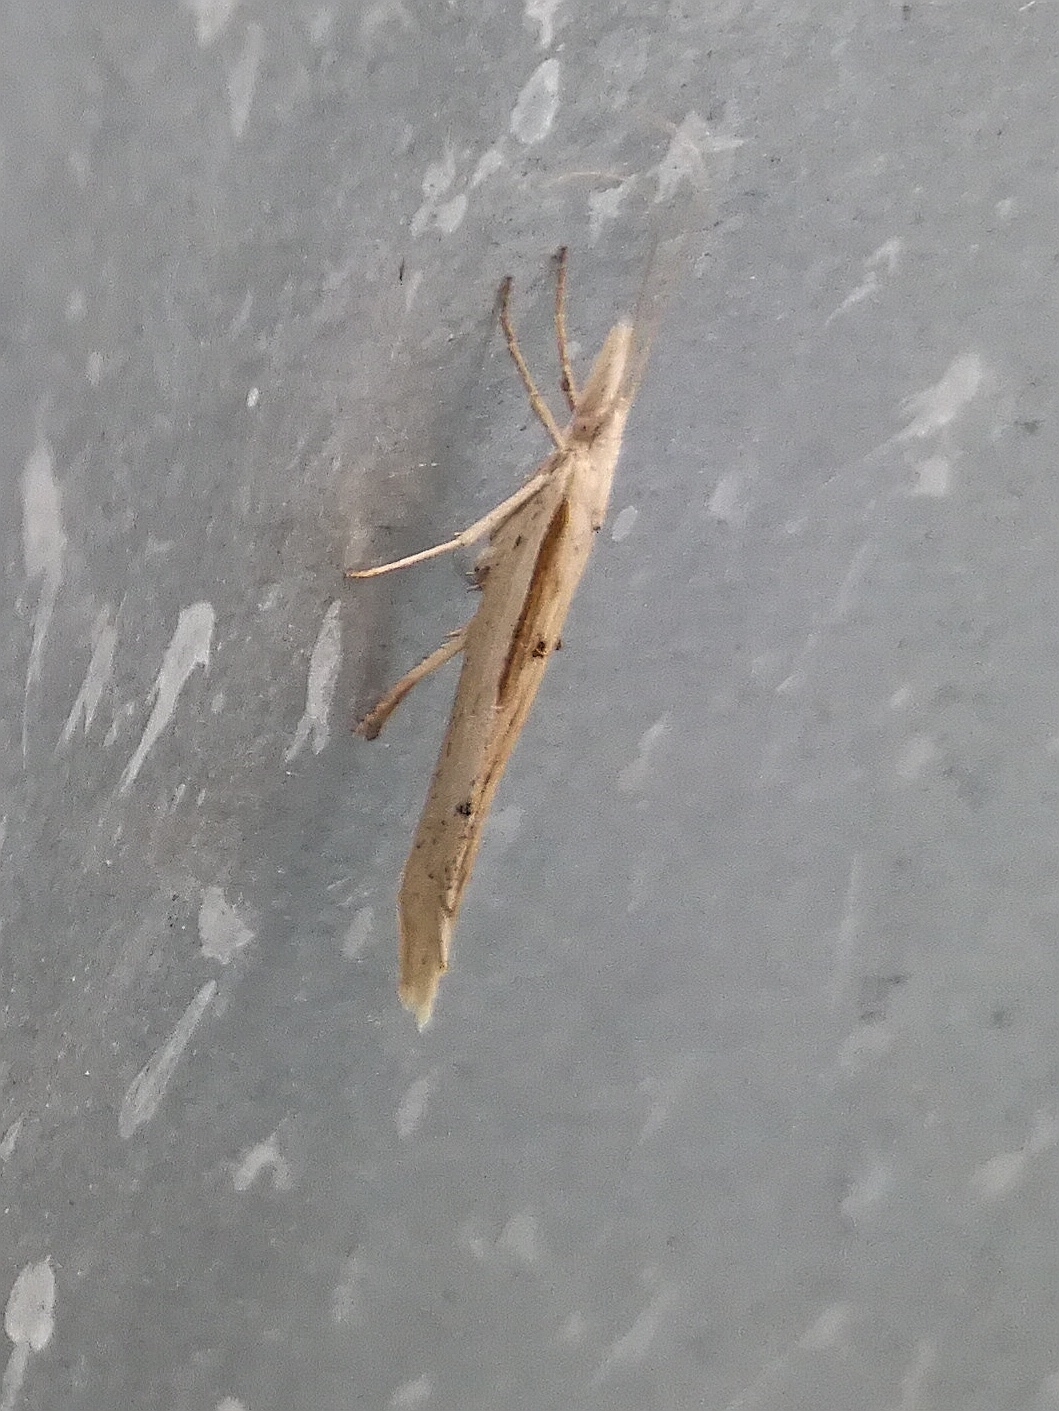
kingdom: Animalia
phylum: Arthropoda
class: Insecta
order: Lepidoptera
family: Ypsolophidae
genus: Ypsolopha
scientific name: Ypsolopha mucronella
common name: Spindle smudge
